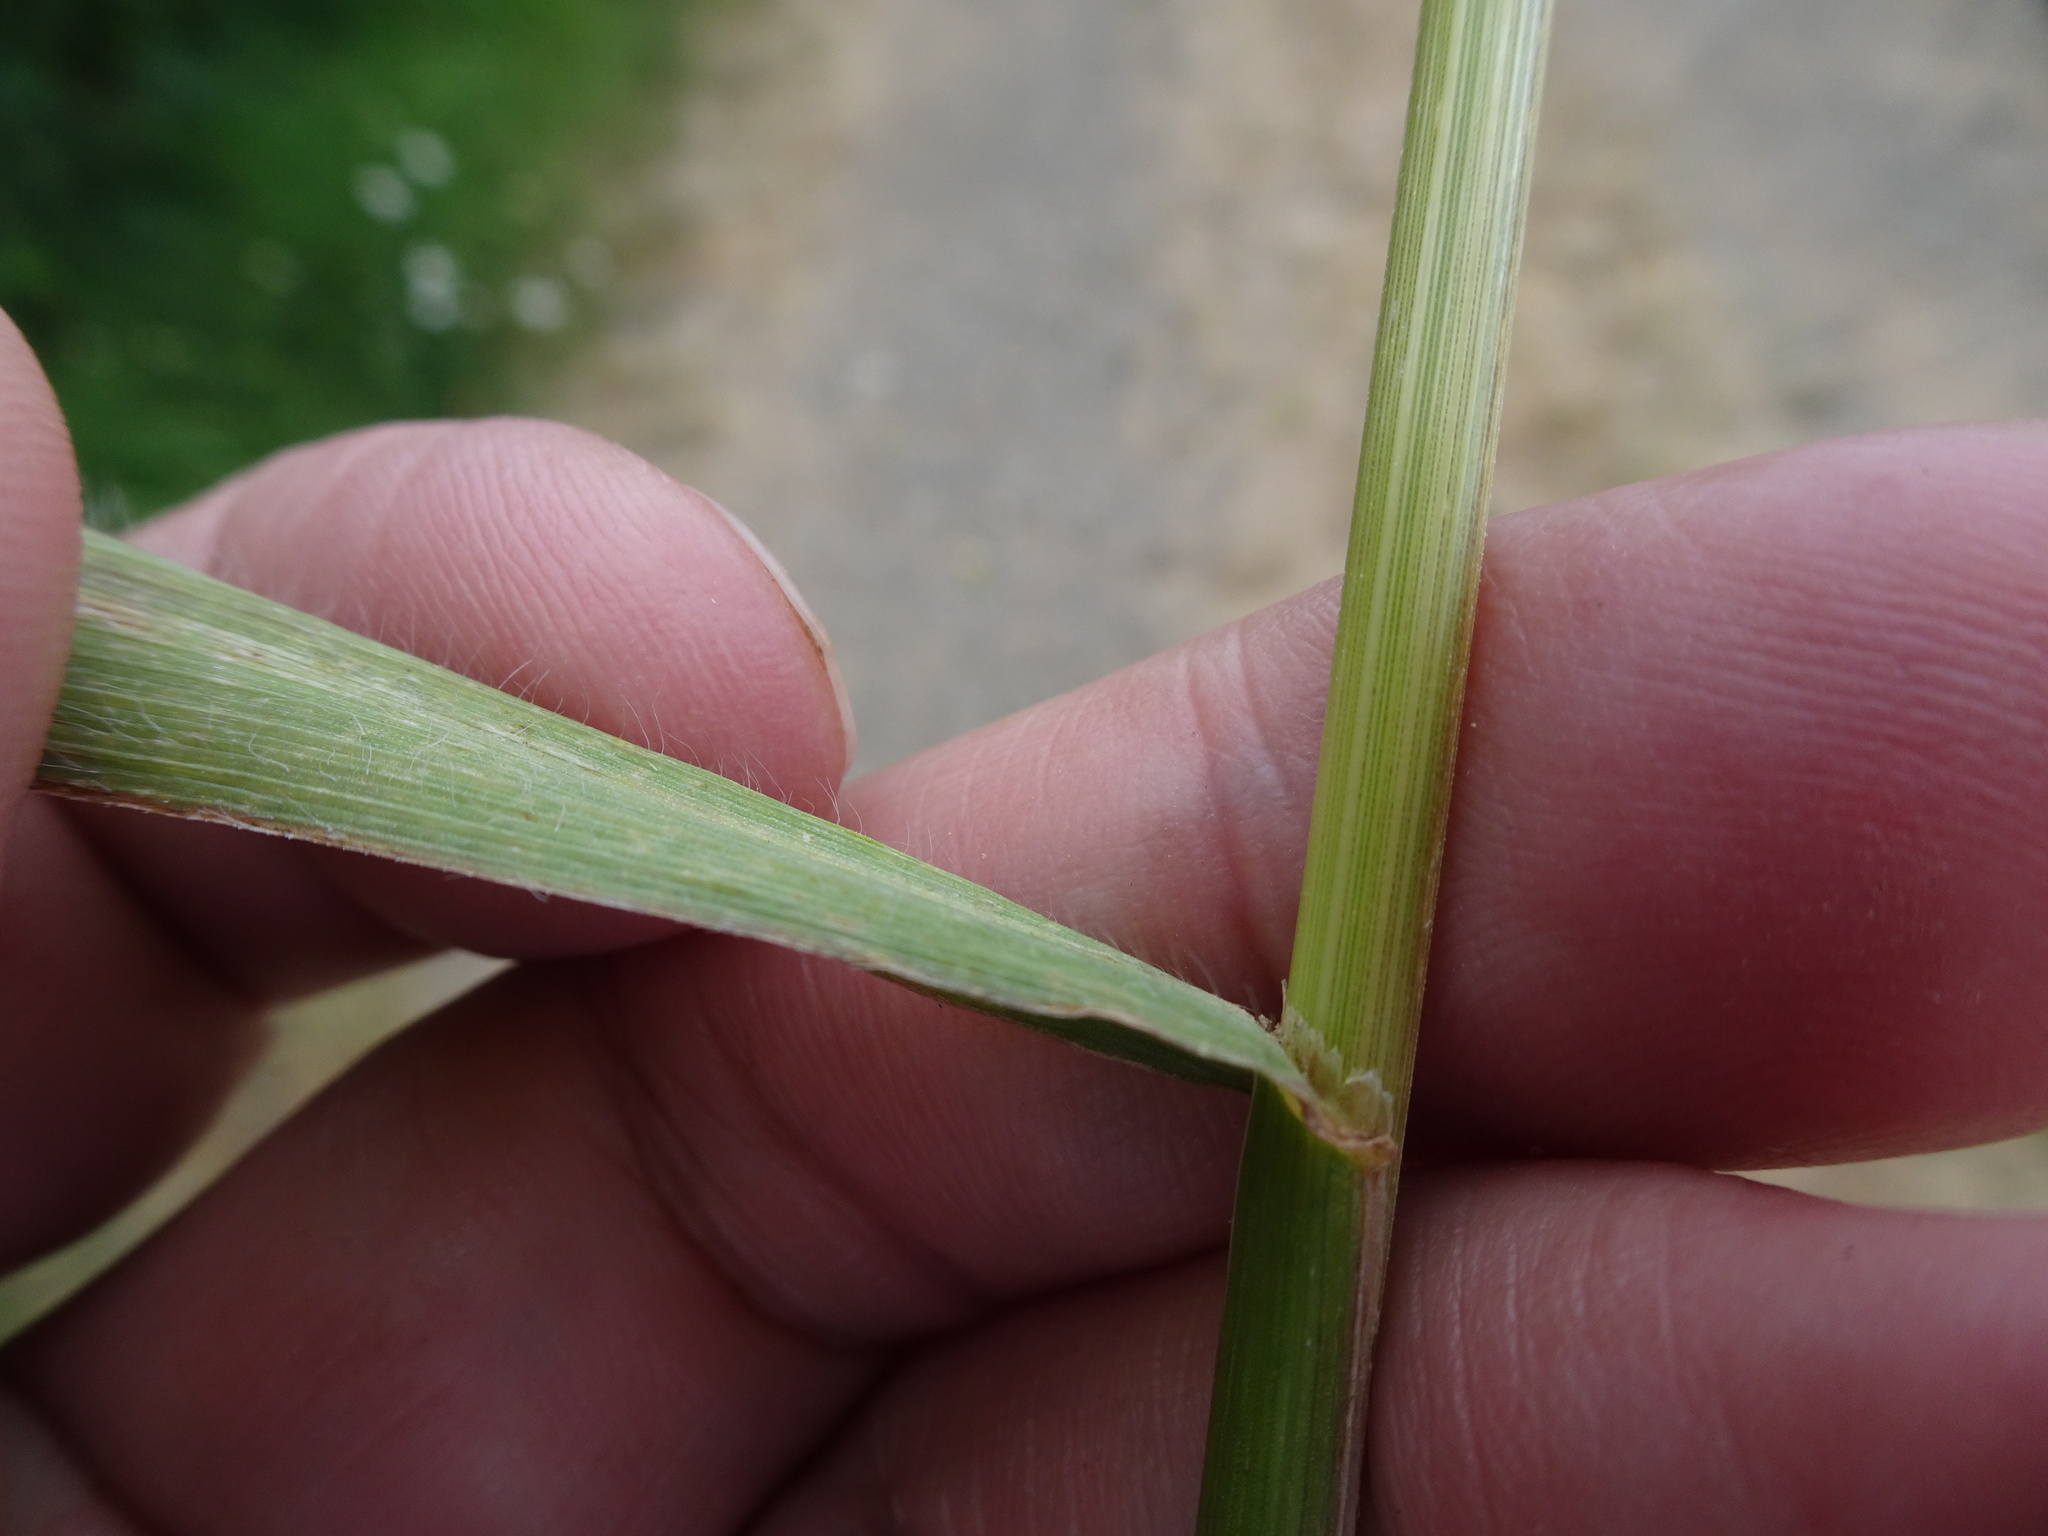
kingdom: Plantae
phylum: Tracheophyta
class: Liliopsida
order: Poales
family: Poaceae
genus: Bromus
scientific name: Bromus secalinus
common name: Rye brome
